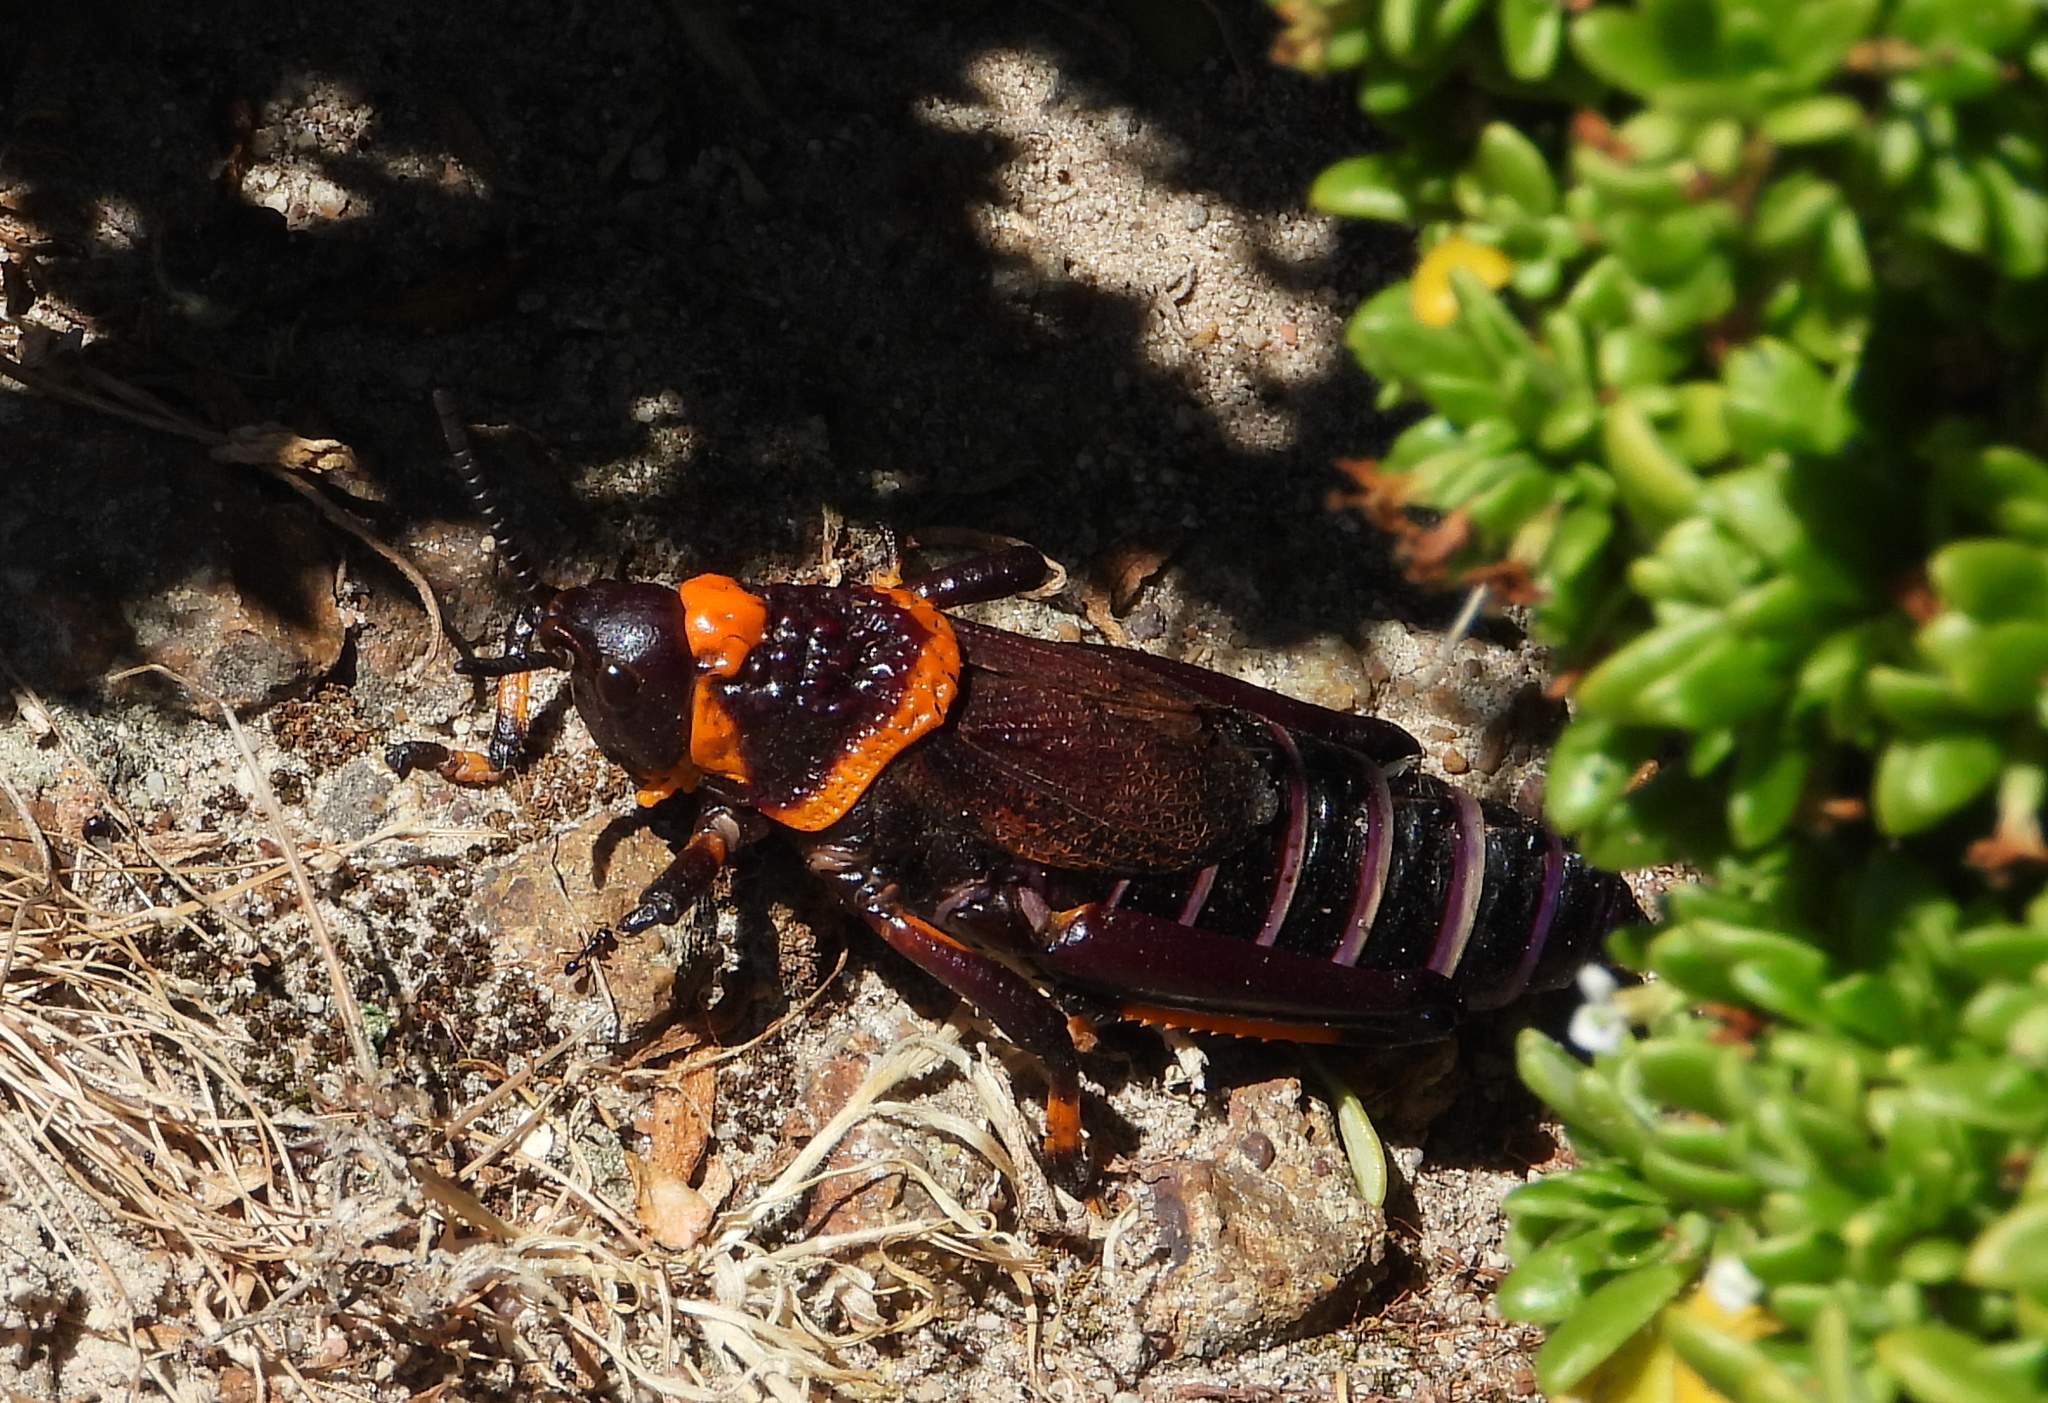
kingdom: Animalia
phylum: Arthropoda
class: Insecta
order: Orthoptera
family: Pyrgomorphidae
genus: Dictyophorus
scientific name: Dictyophorus spumans
